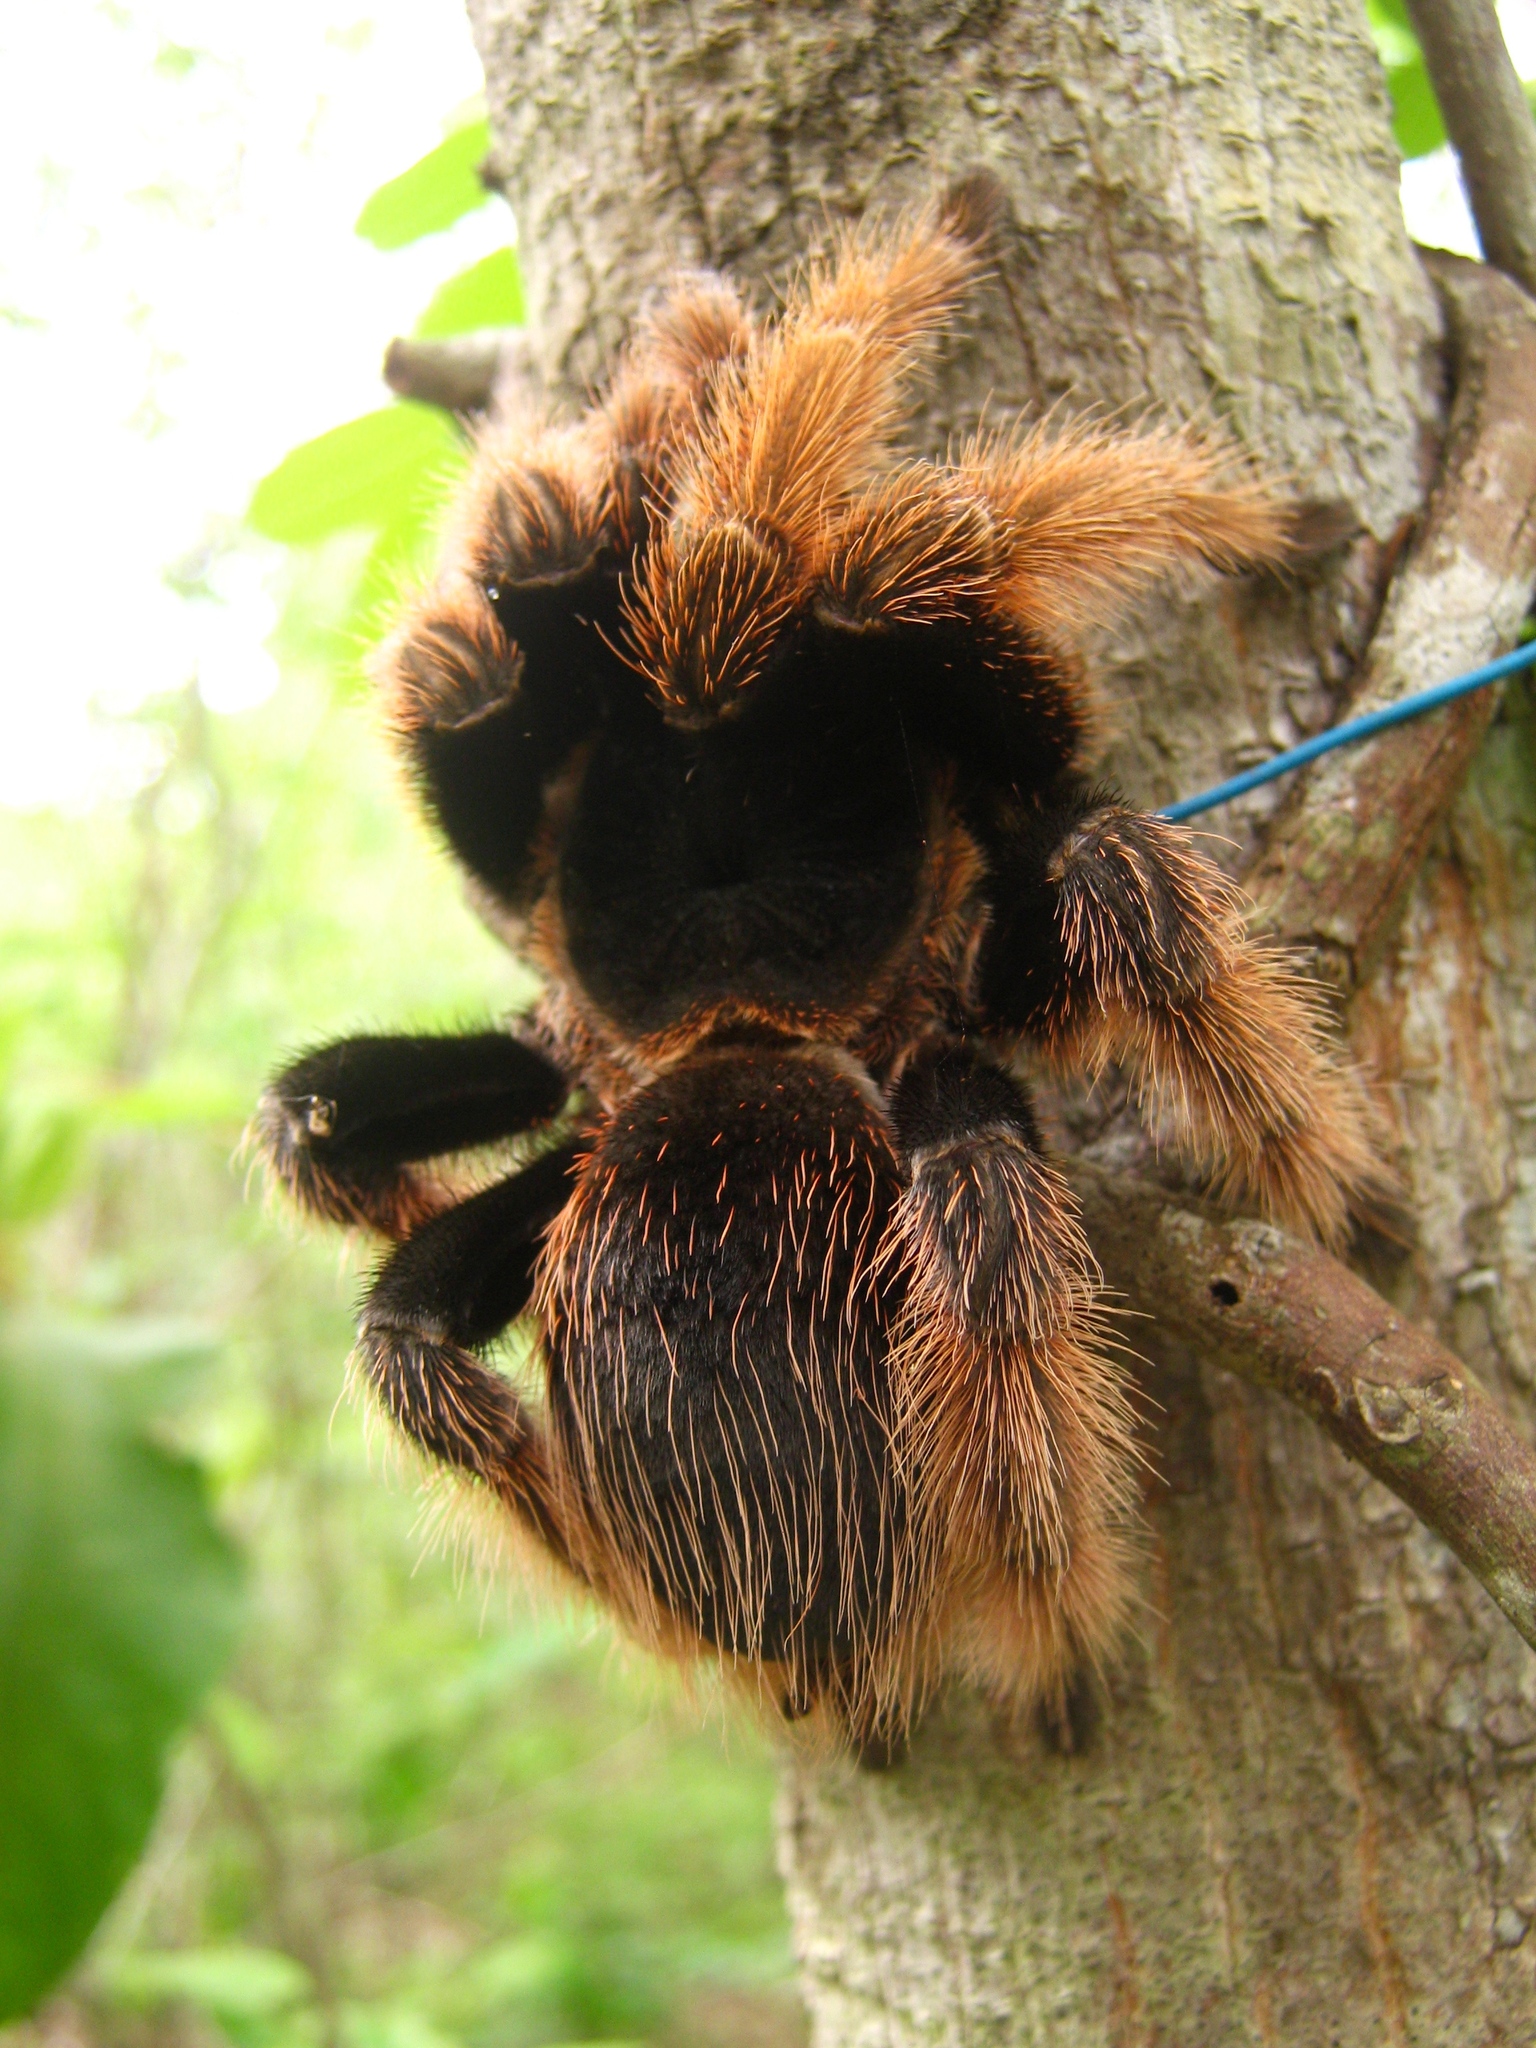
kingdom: Animalia
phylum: Arthropoda
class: Arachnida
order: Araneae
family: Theraphosidae
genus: Brachypelma
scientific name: Brachypelma klaasi
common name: Mexican pink beauty
